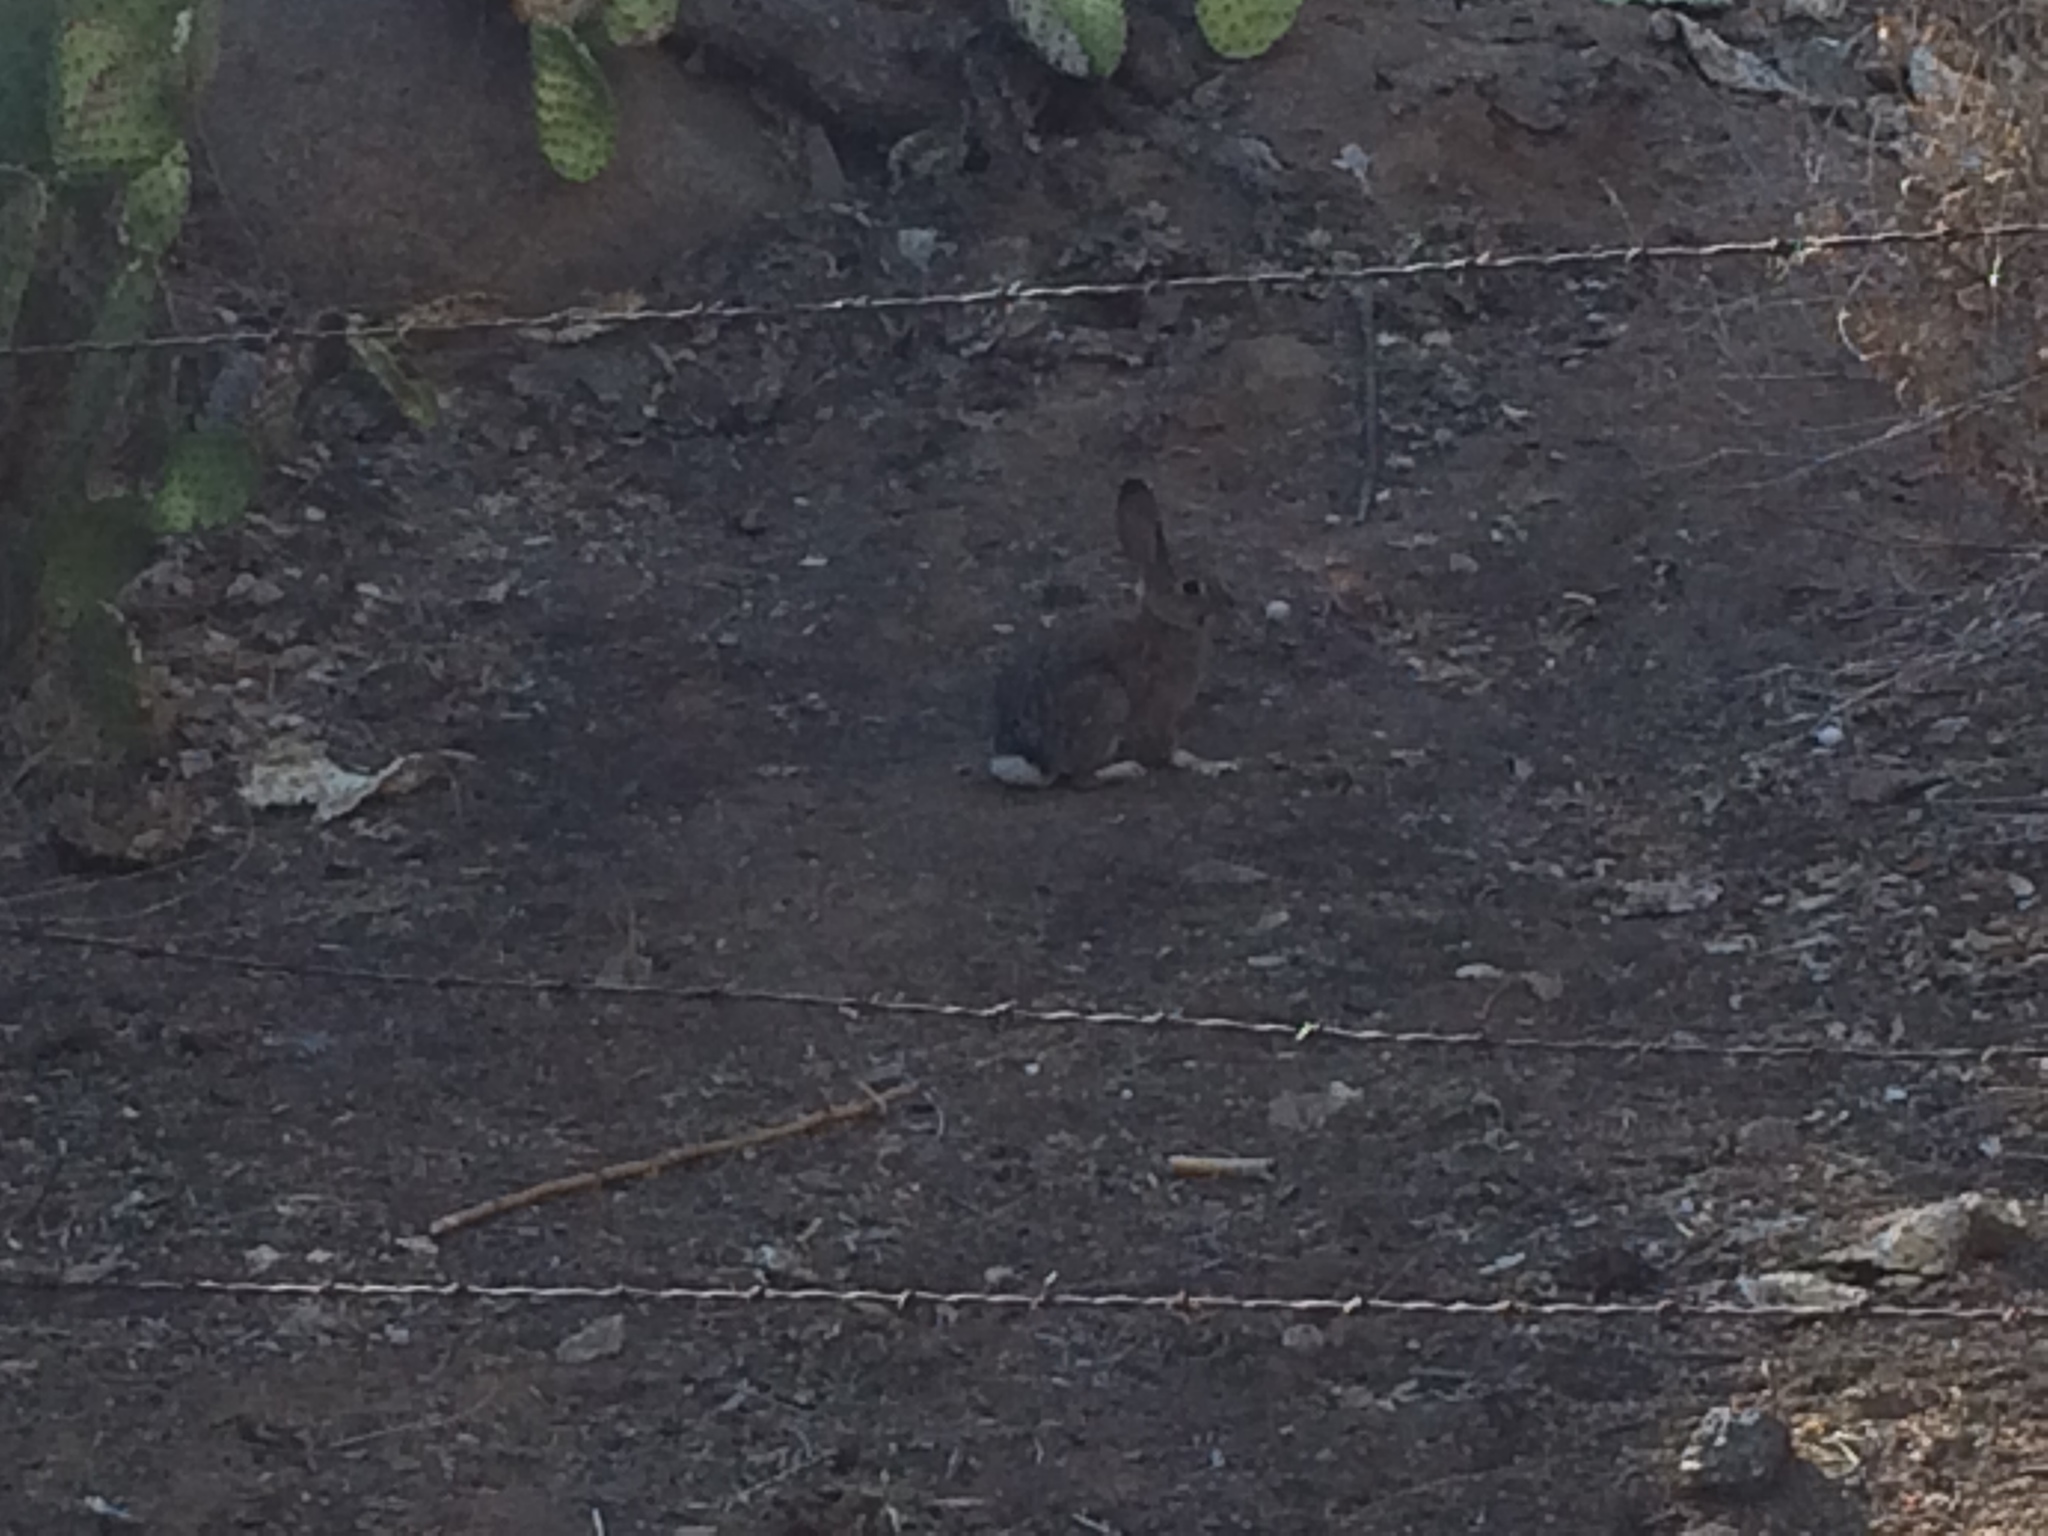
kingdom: Animalia
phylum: Chordata
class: Mammalia
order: Lagomorpha
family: Leporidae
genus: Sylvilagus
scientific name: Sylvilagus audubonii
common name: Desert cottontail
